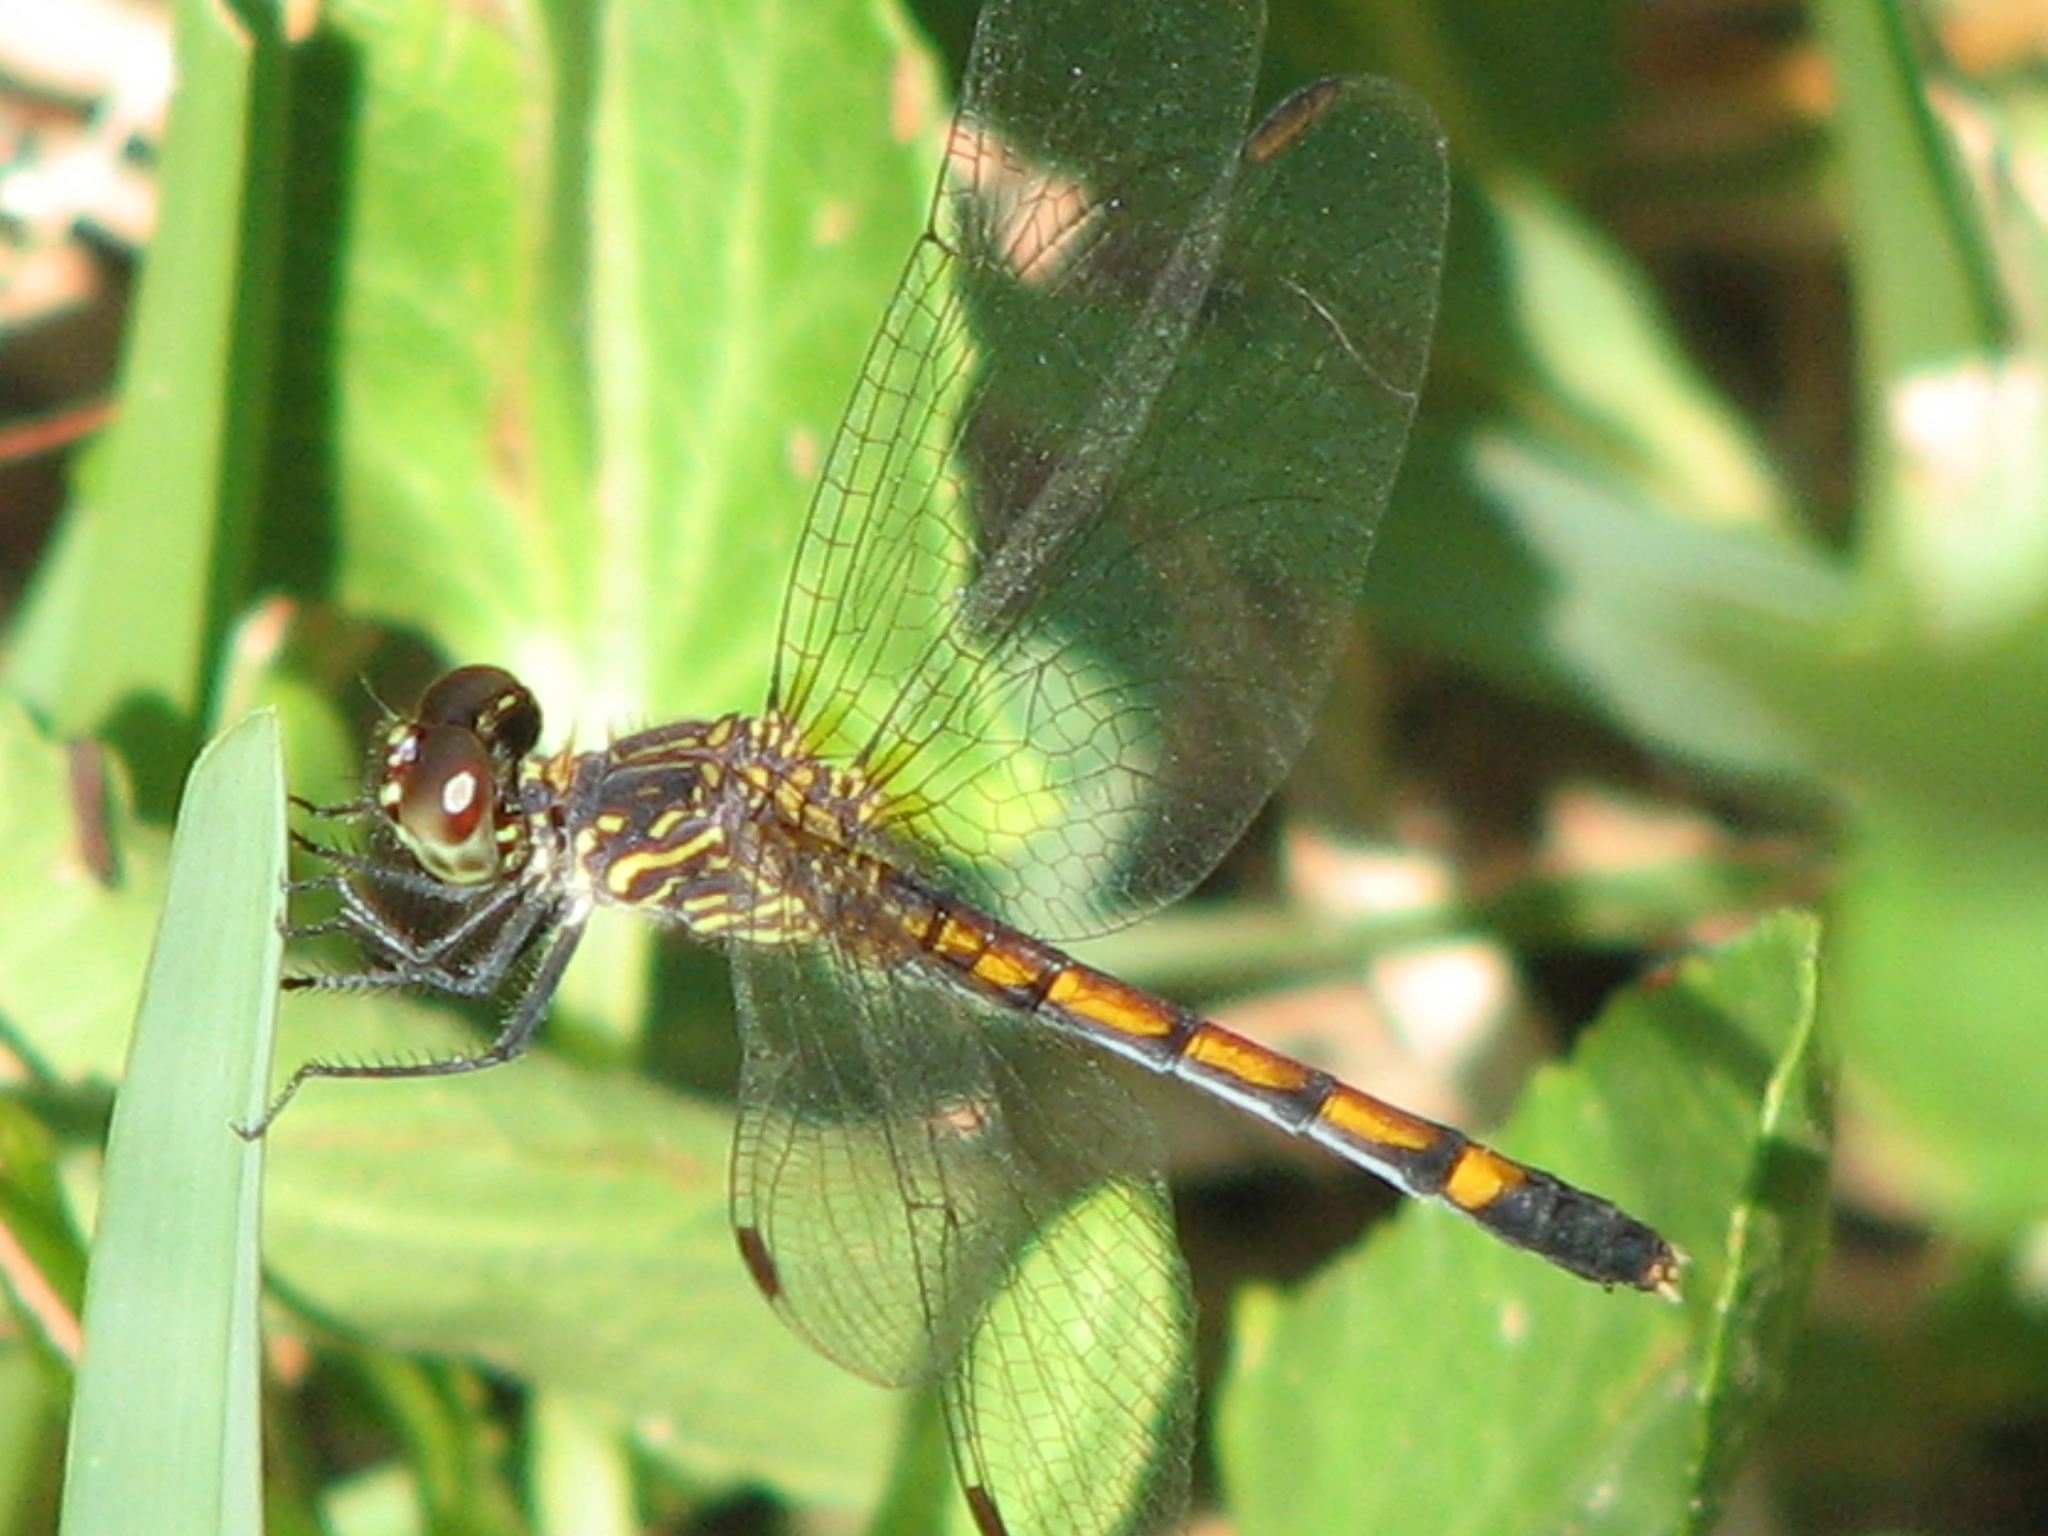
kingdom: Animalia
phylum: Arthropoda
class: Insecta
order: Odonata
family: Libellulidae
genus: Erythrodiplax
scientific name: Erythrodiplax berenice
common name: Seaside dragonlet
